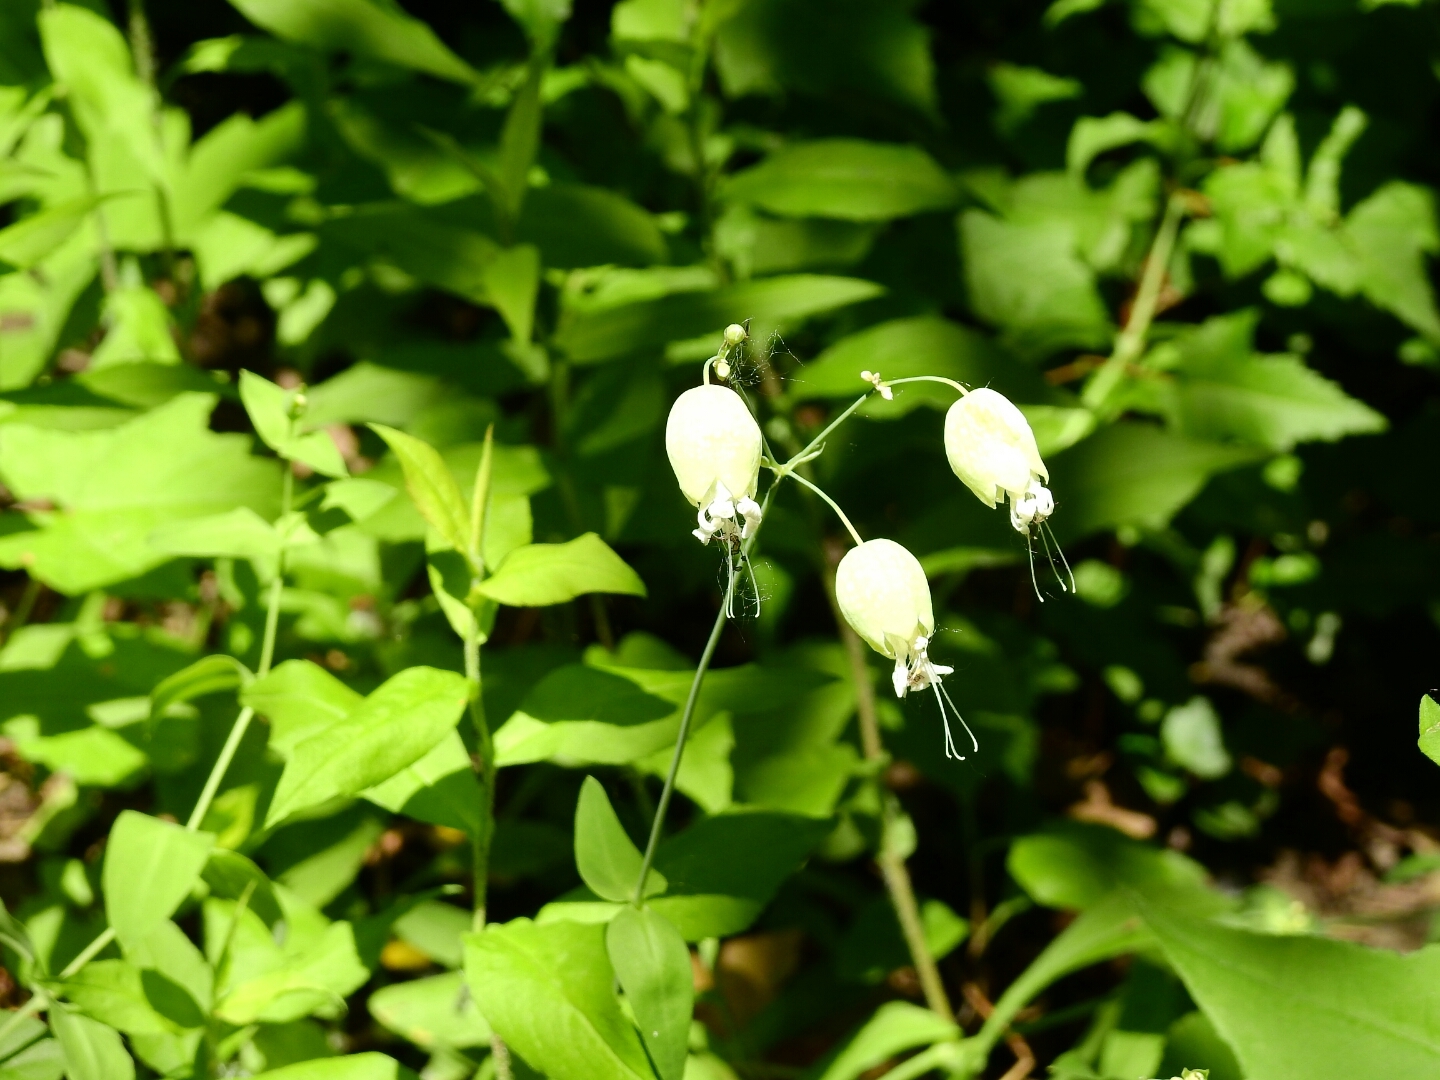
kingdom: Plantae
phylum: Tracheophyta
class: Magnoliopsida
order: Caryophyllales
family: Caryophyllaceae
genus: Silene
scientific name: Silene vulgaris
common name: Bladder campion
